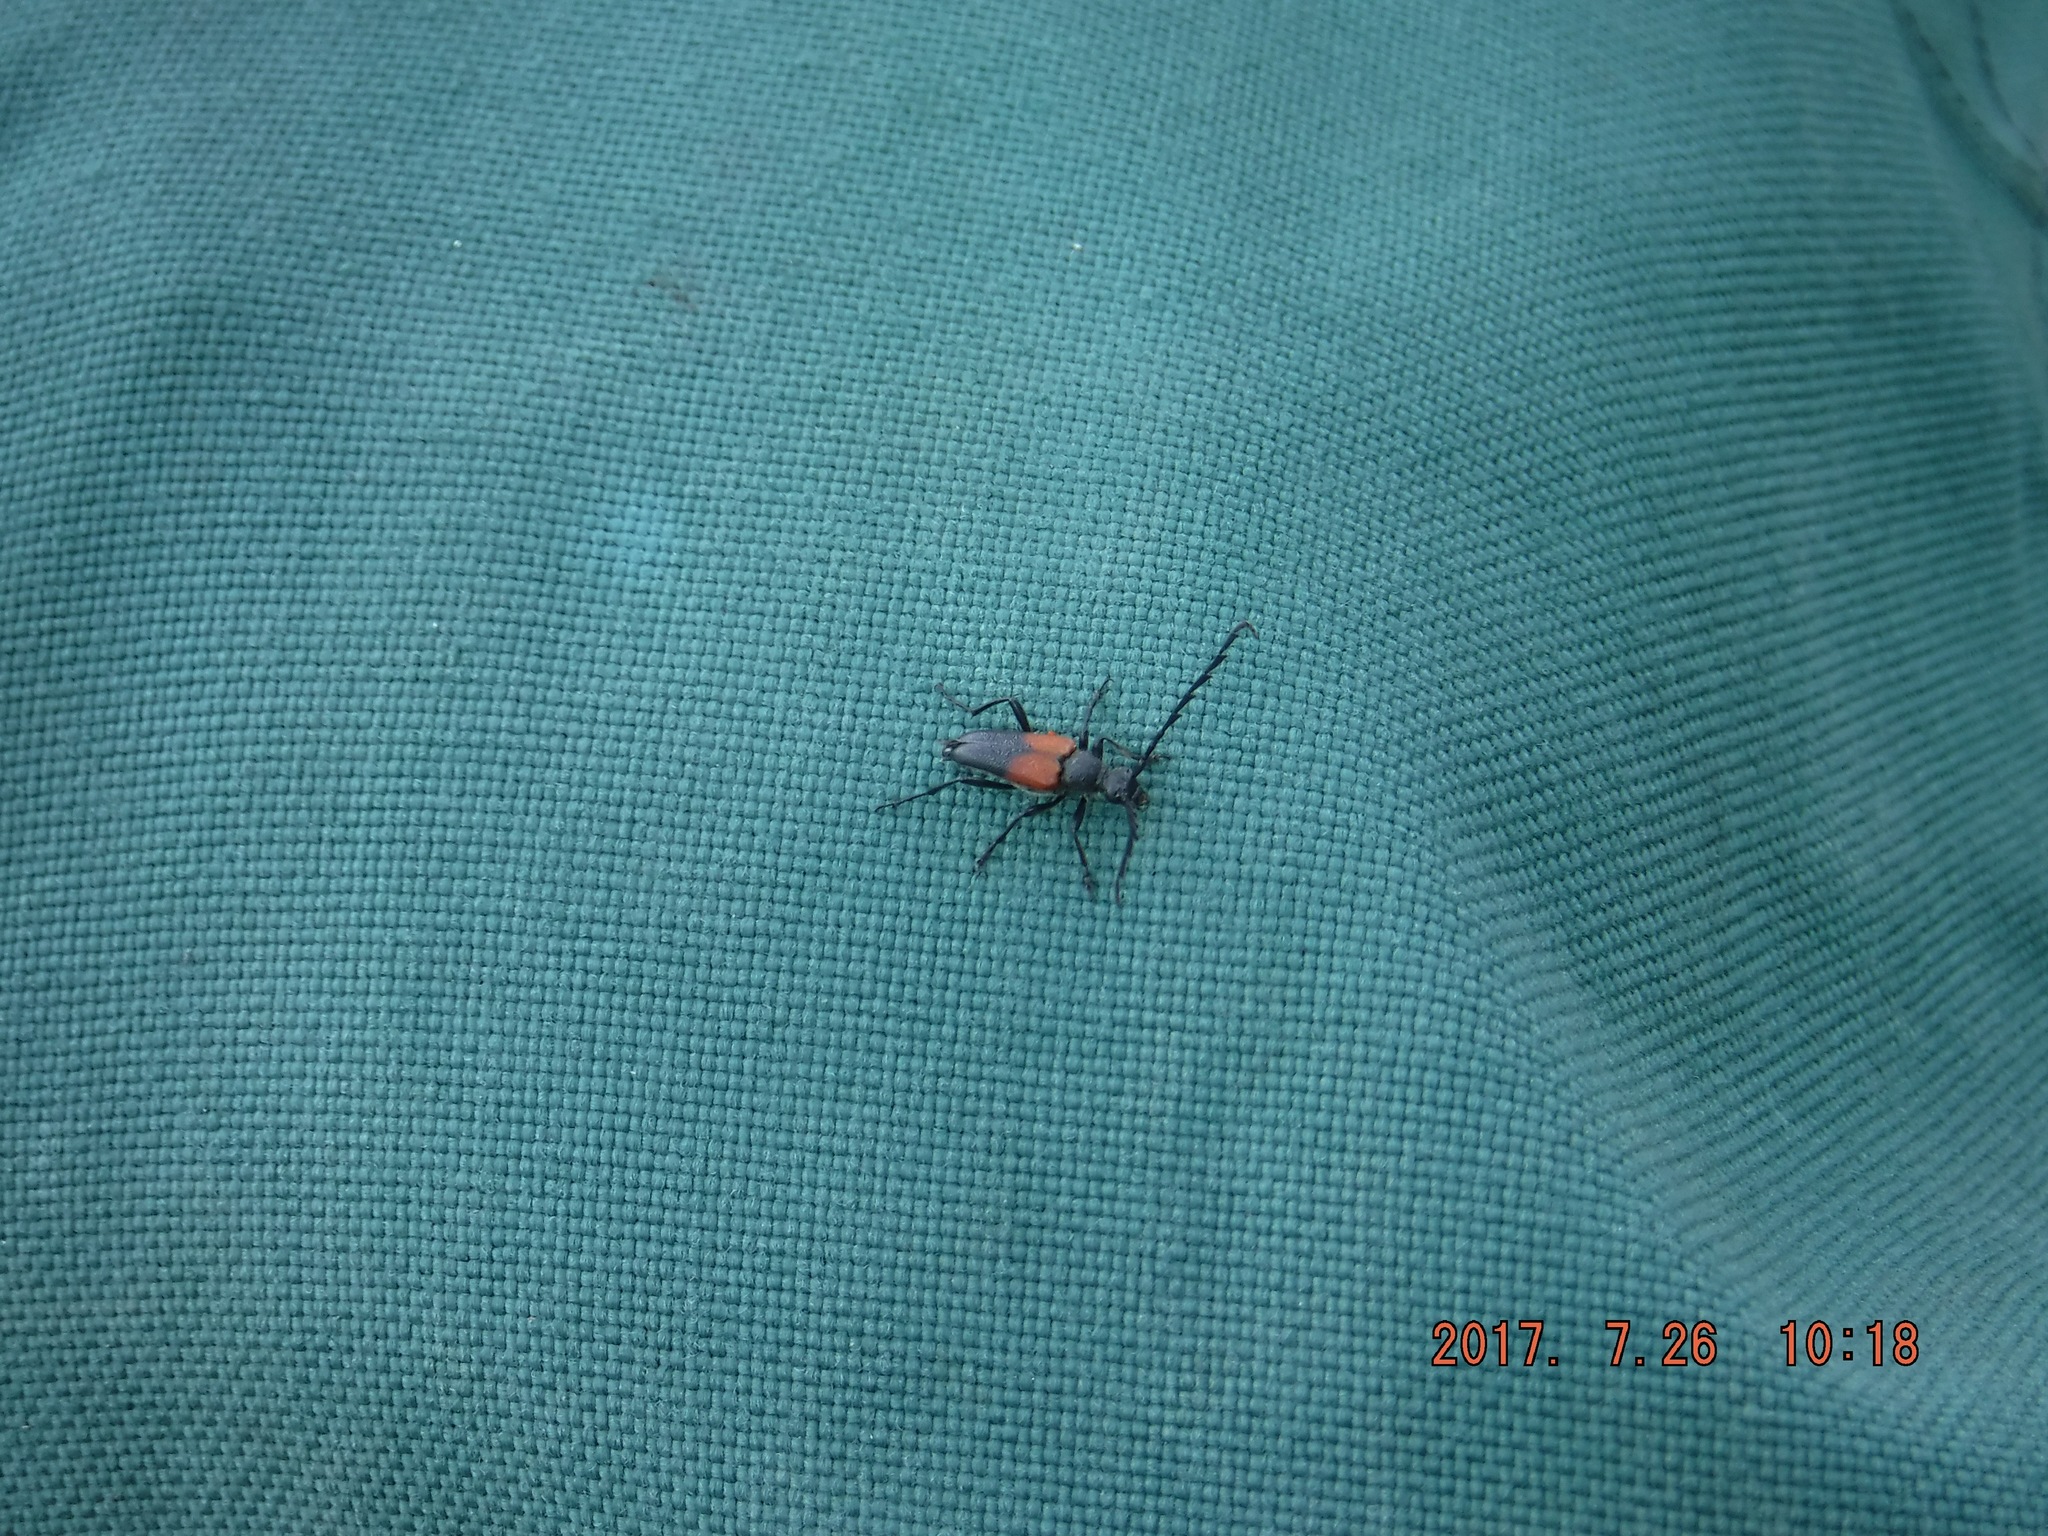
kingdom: Animalia
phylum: Arthropoda
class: Insecta
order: Coleoptera
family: Cerambycidae
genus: Stictoleptura
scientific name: Stictoleptura canadensis
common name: Red-shouldered pine borer
